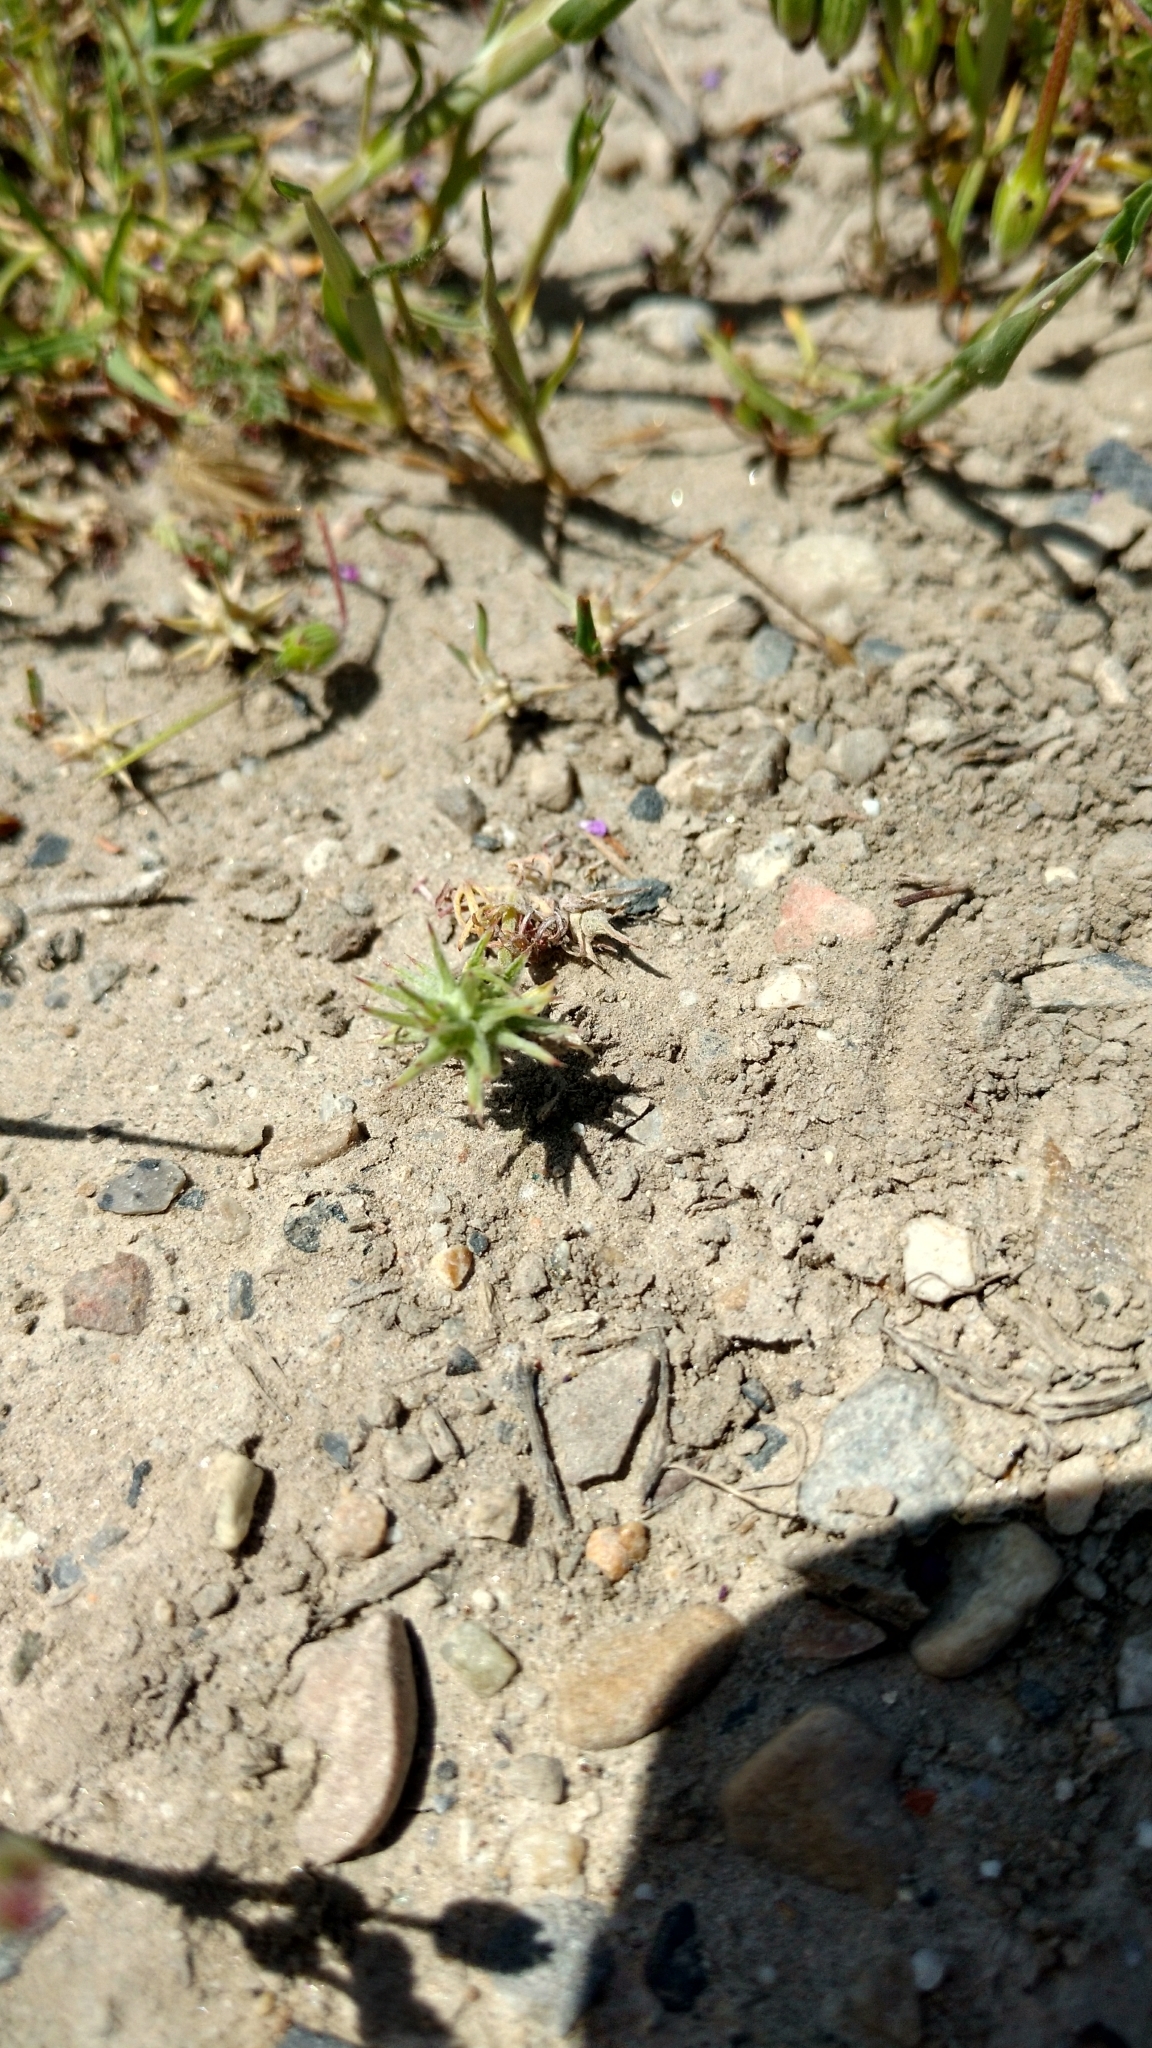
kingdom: Plantae
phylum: Tracheophyta
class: Magnoliopsida
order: Ranunculales
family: Ranunculaceae
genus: Ceratocephala
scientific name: Ceratocephala orthoceras
